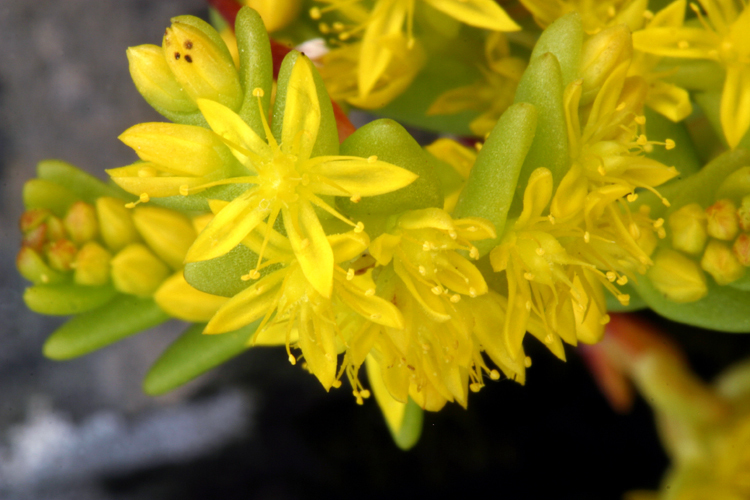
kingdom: Plantae
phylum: Tracheophyta
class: Magnoliopsida
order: Saxifragales
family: Crassulaceae
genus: Sedella
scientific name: Sedella pumila
